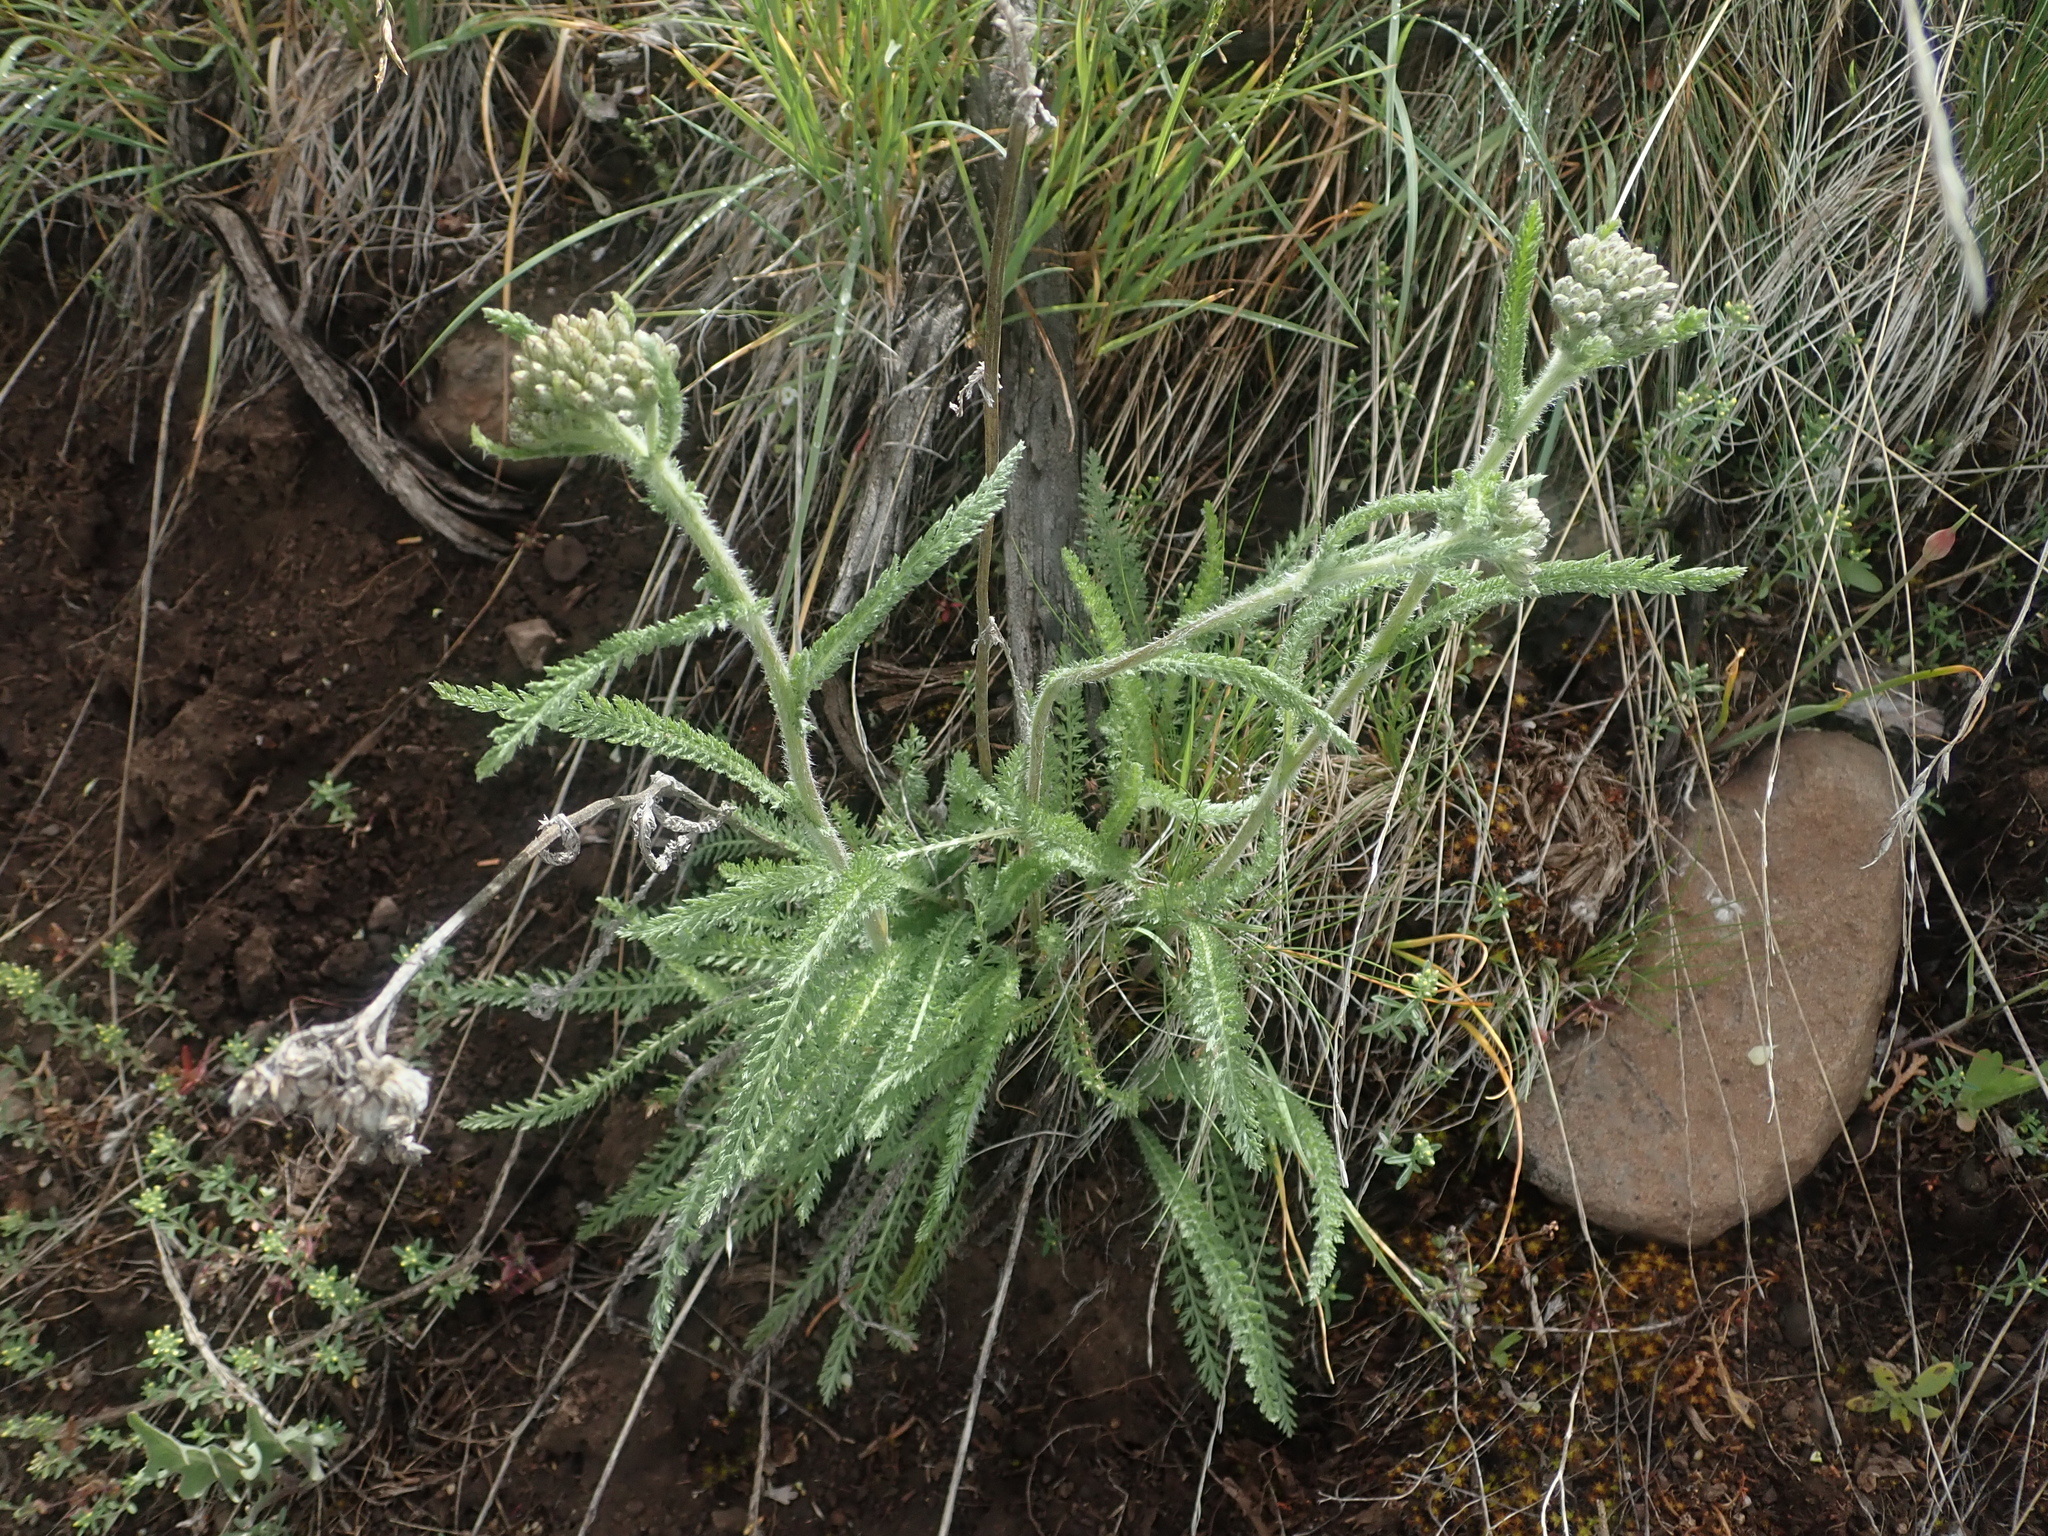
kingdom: Plantae
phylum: Tracheophyta
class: Magnoliopsida
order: Asterales
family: Asteraceae
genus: Achillea
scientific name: Achillea millefolium
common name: Yarrow
